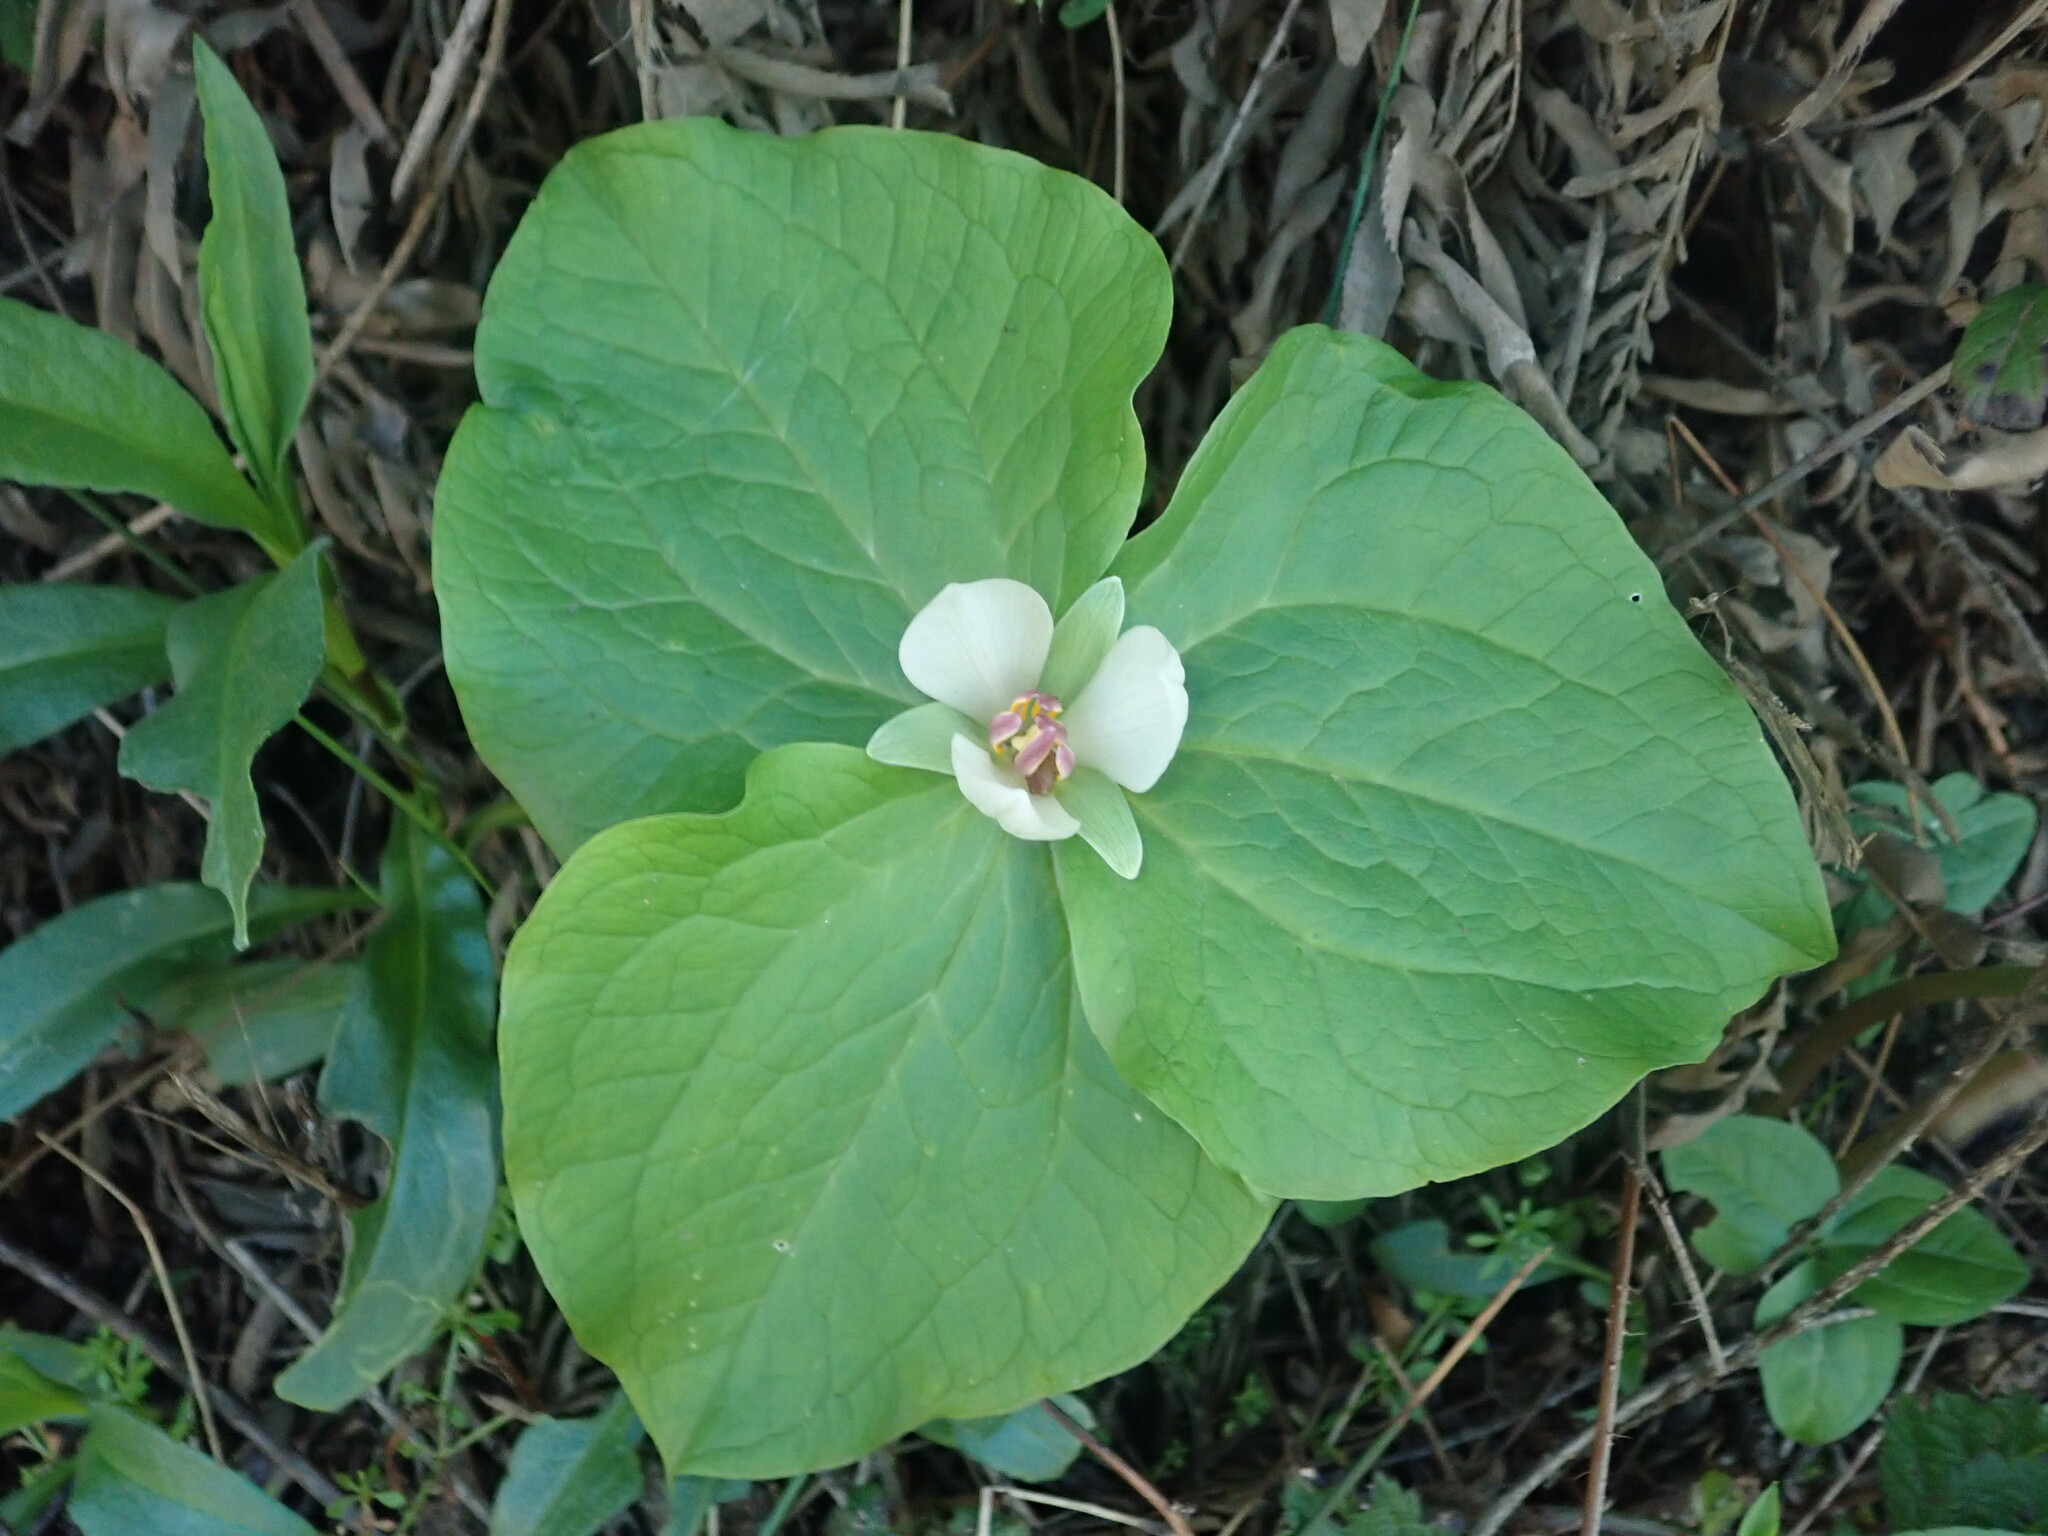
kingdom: Plantae
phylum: Tracheophyta
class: Liliopsida
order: Liliales
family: Melanthiaceae
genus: Trillium
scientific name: Trillium chloropetalum
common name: Giant trillium
